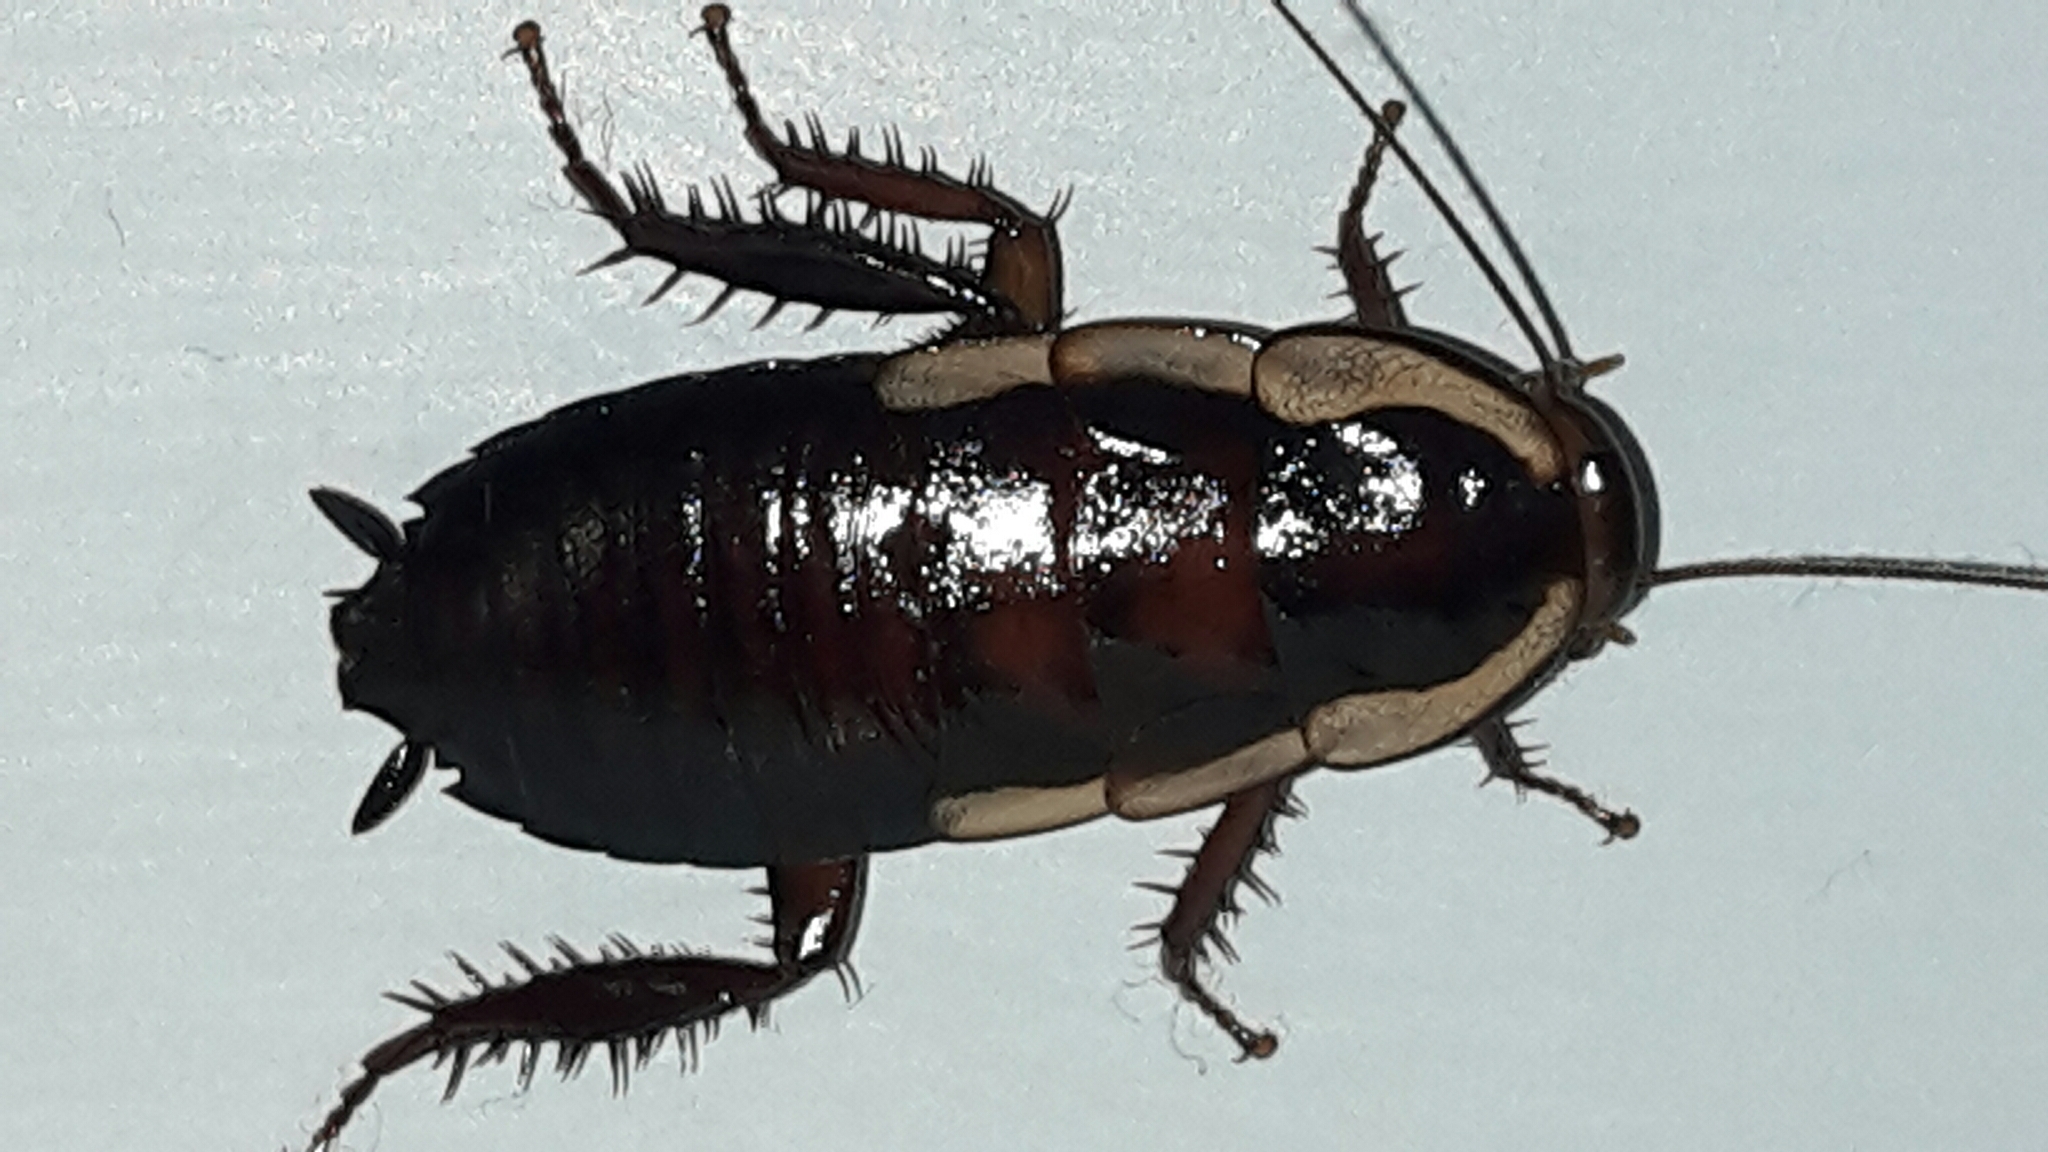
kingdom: Animalia
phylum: Arthropoda
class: Insecta
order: Blattodea
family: Blattidae
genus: Drymaplaneta
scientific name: Drymaplaneta semivitta
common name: Gisborne cockroach
